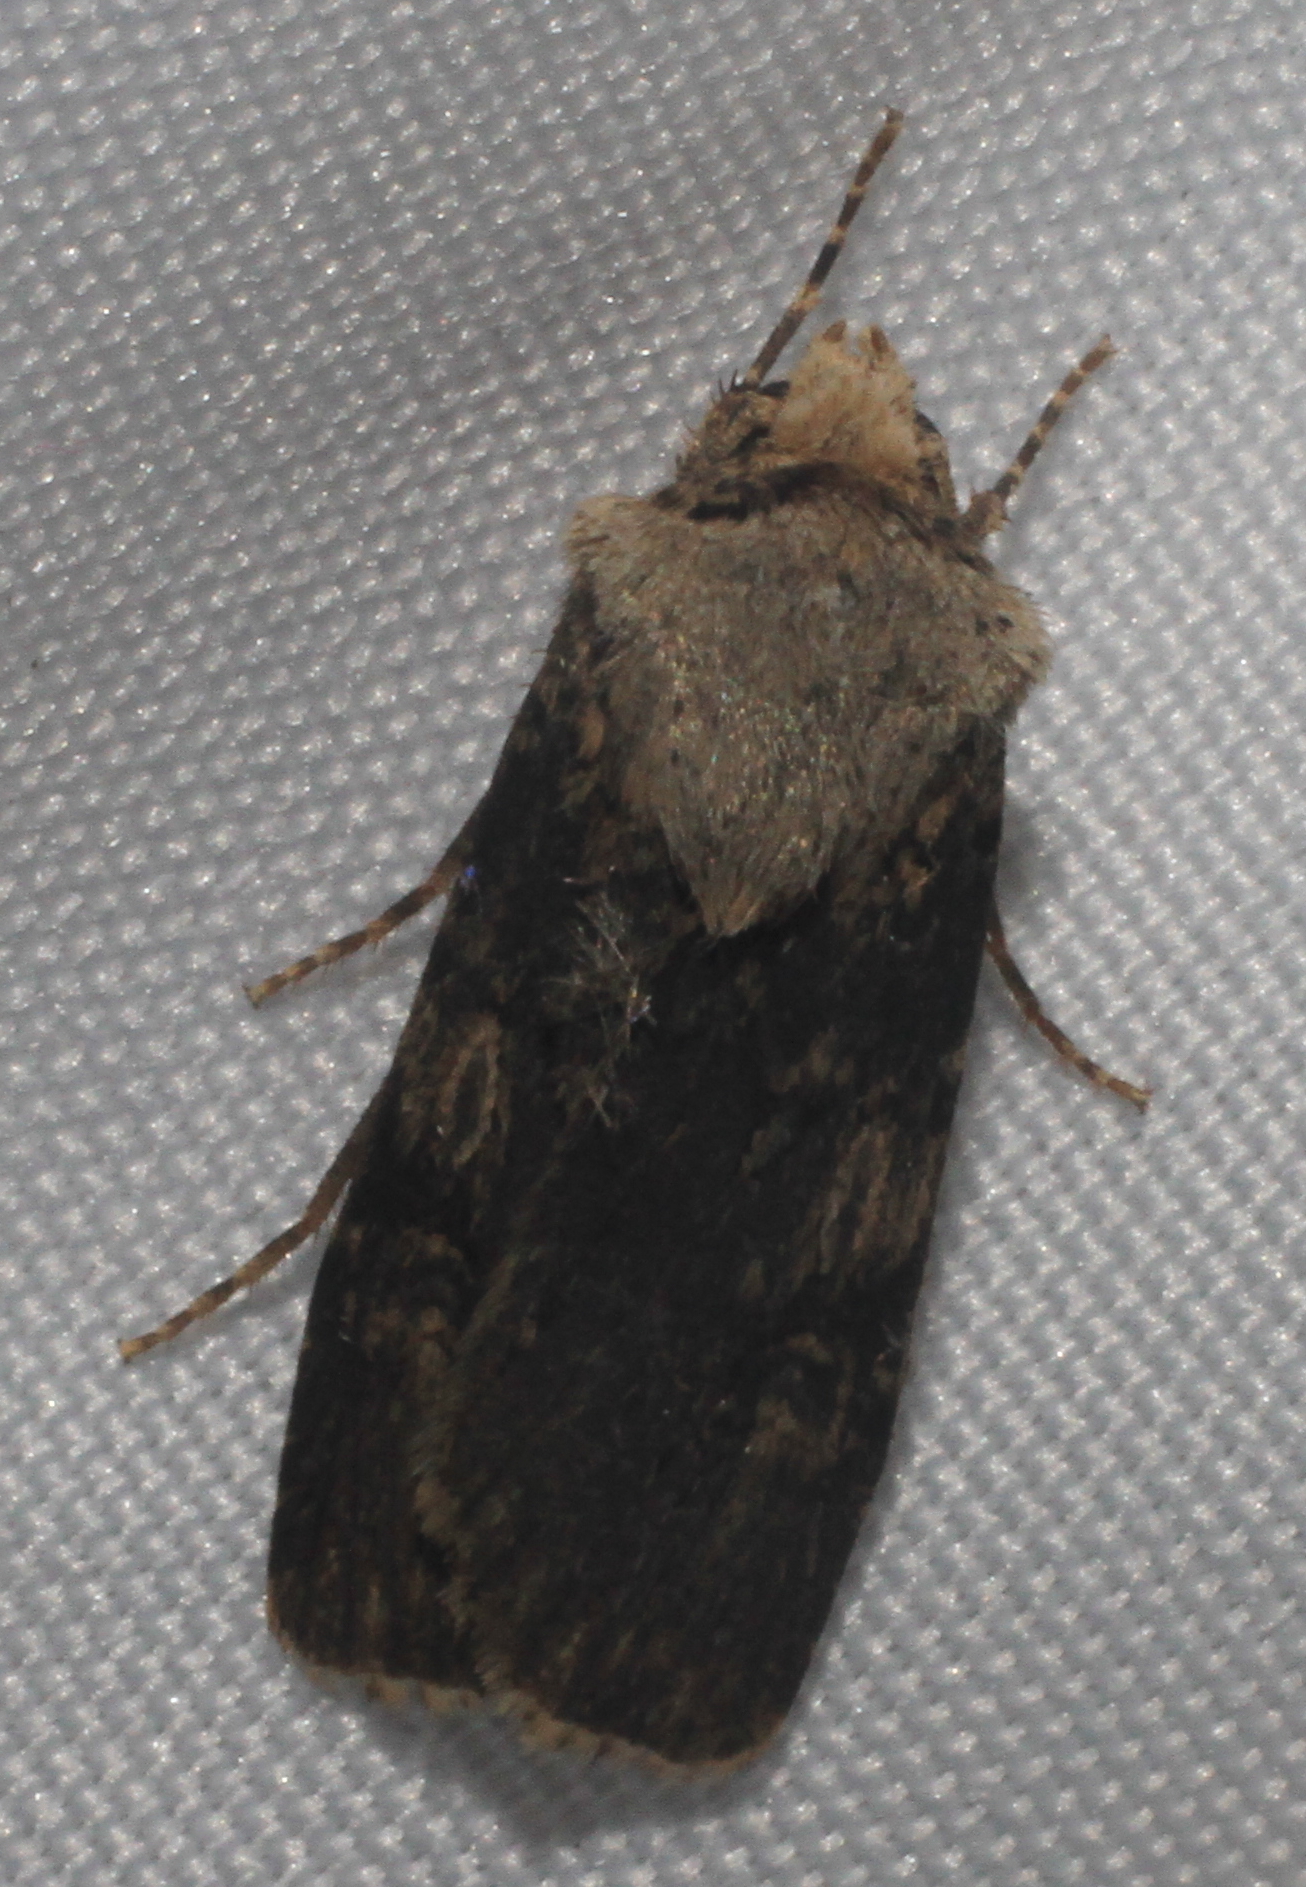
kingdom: Animalia
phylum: Arthropoda
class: Insecta
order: Lepidoptera
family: Noctuidae
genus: Agrotis
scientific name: Agrotis puta
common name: Shuttle-shaped dart
